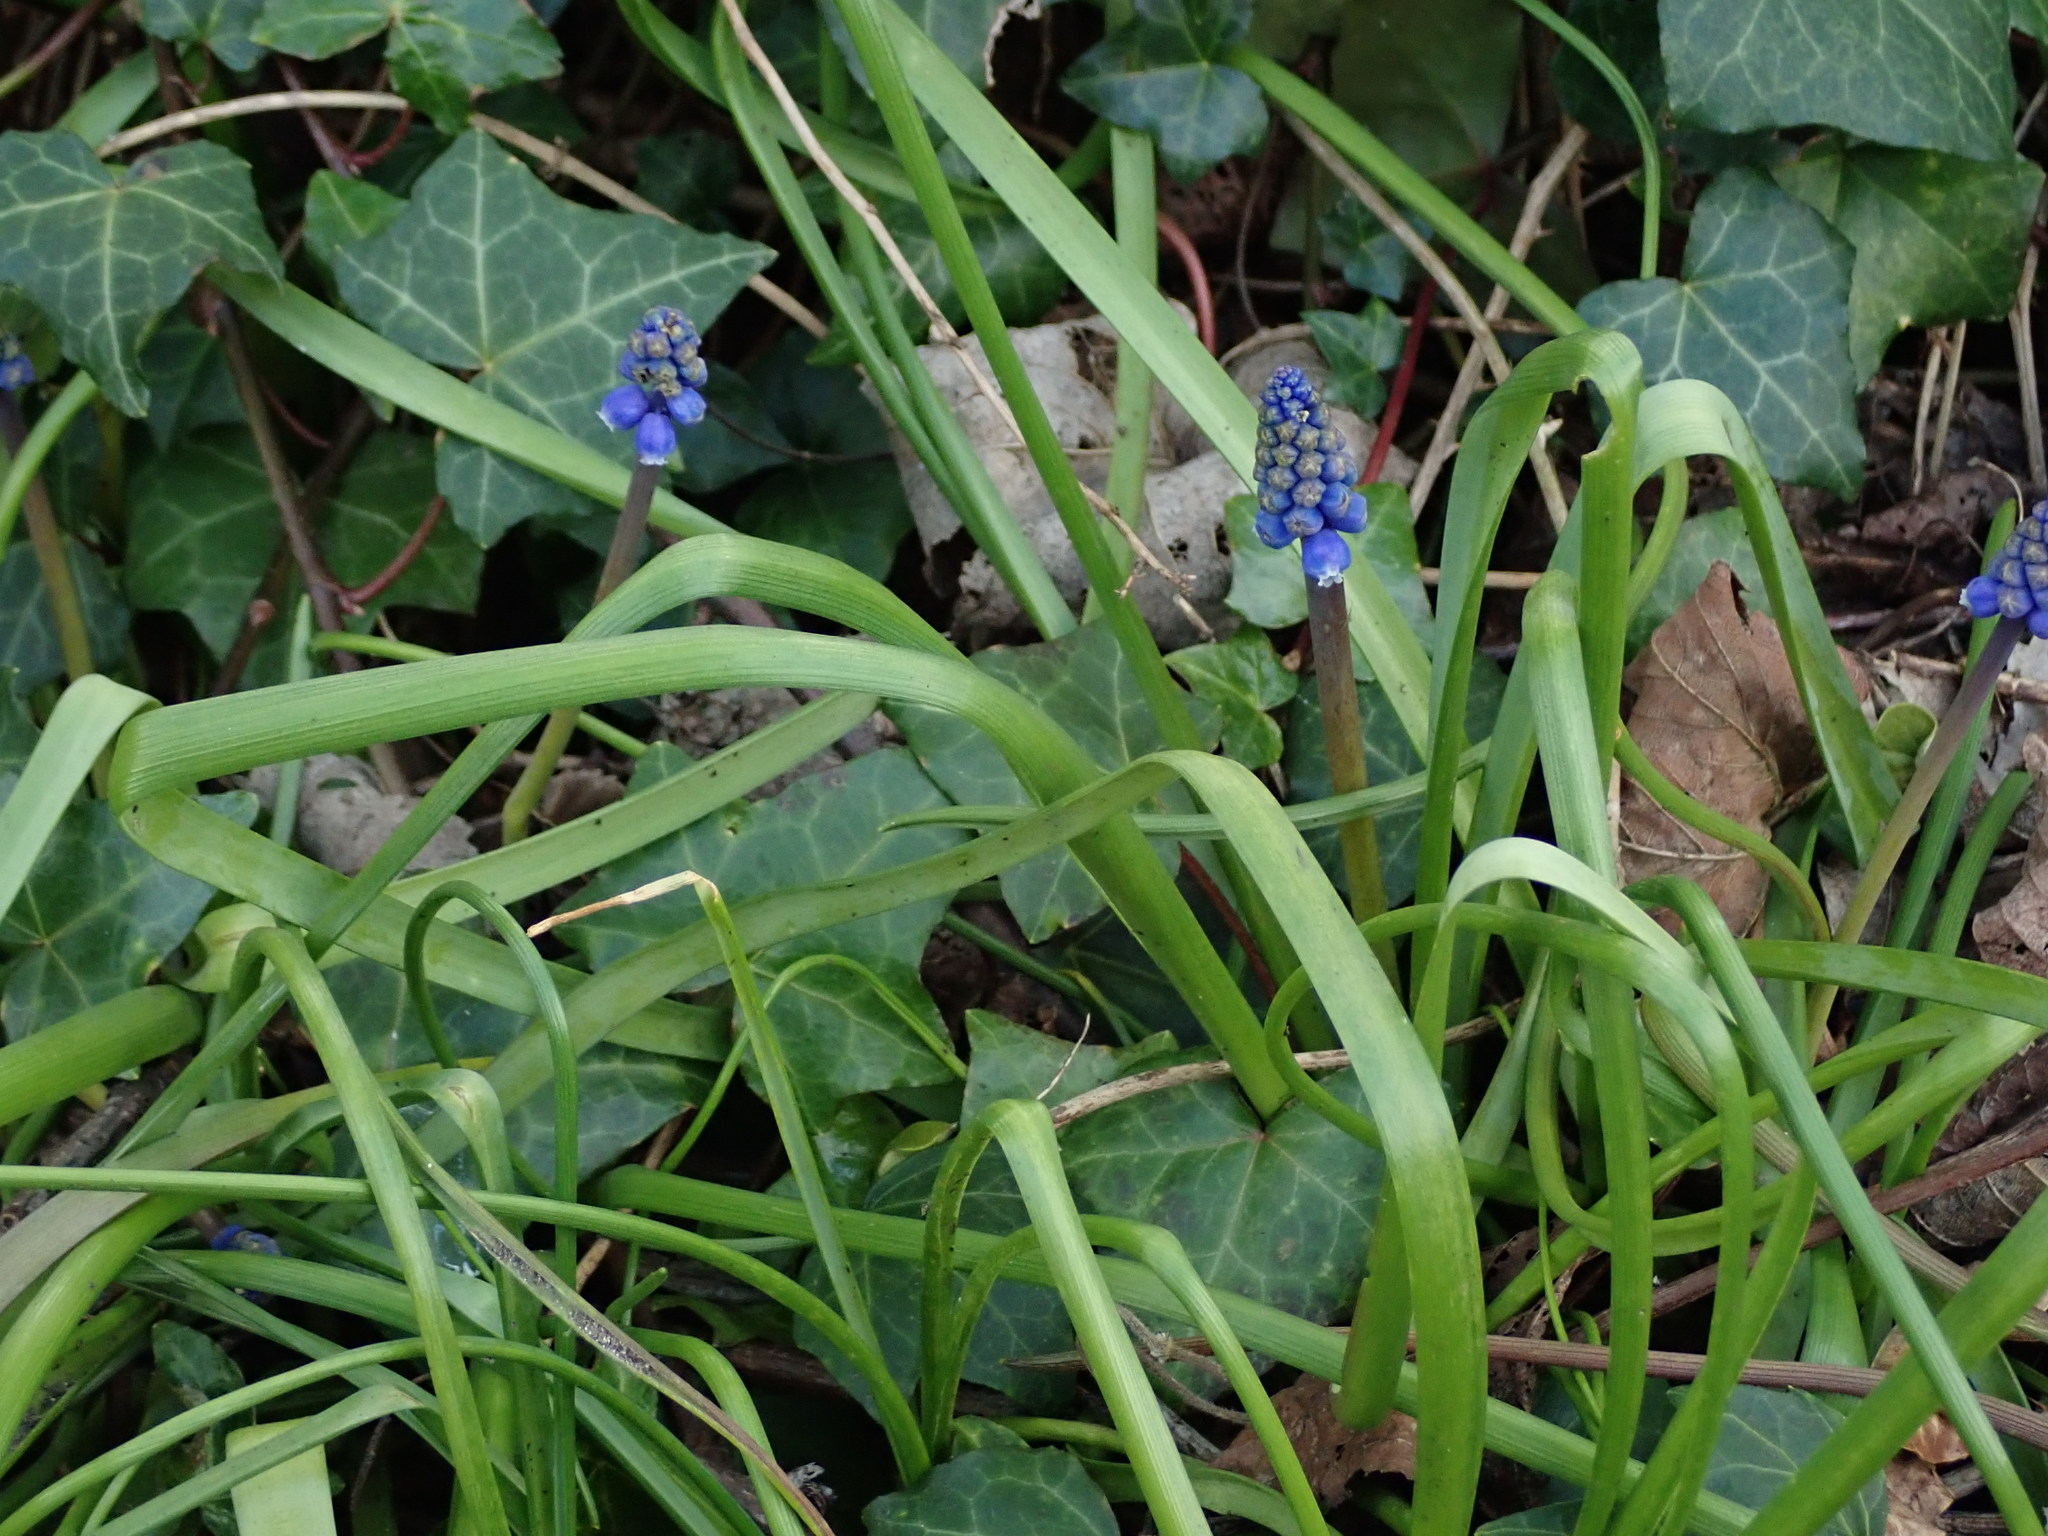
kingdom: Plantae
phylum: Tracheophyta
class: Liliopsida
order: Asparagales
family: Asparagaceae
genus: Muscari
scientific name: Muscari armeniacum
